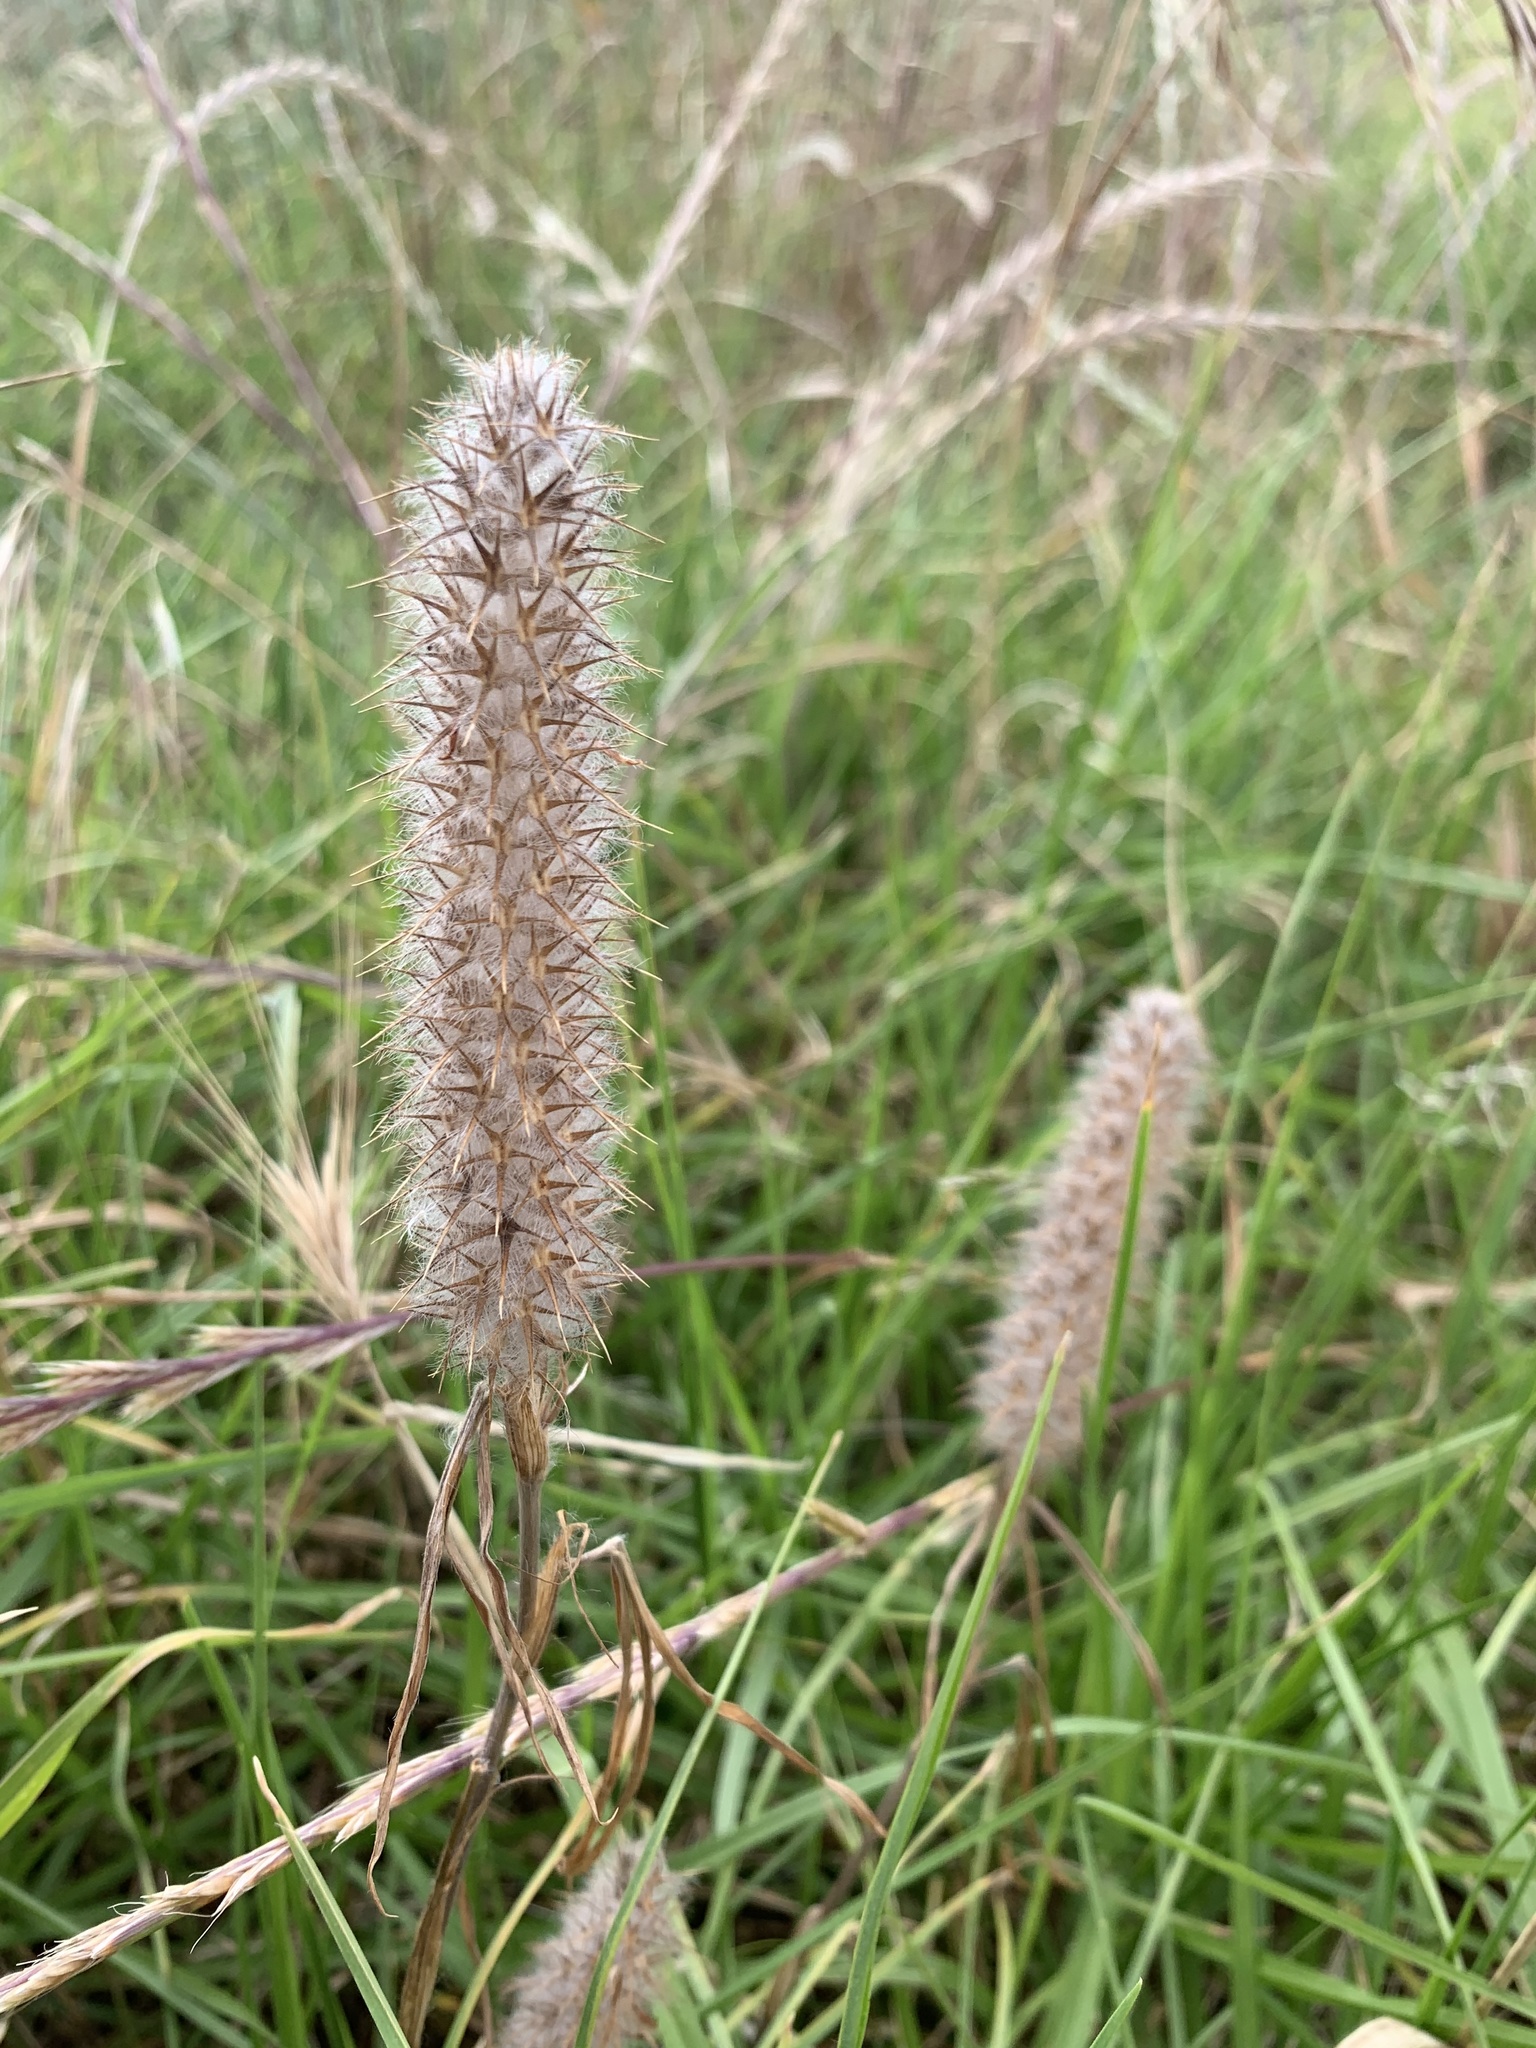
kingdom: Plantae
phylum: Tracheophyta
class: Magnoliopsida
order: Fabales
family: Fabaceae
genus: Trifolium
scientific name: Trifolium angustifolium
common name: Narrow clover
